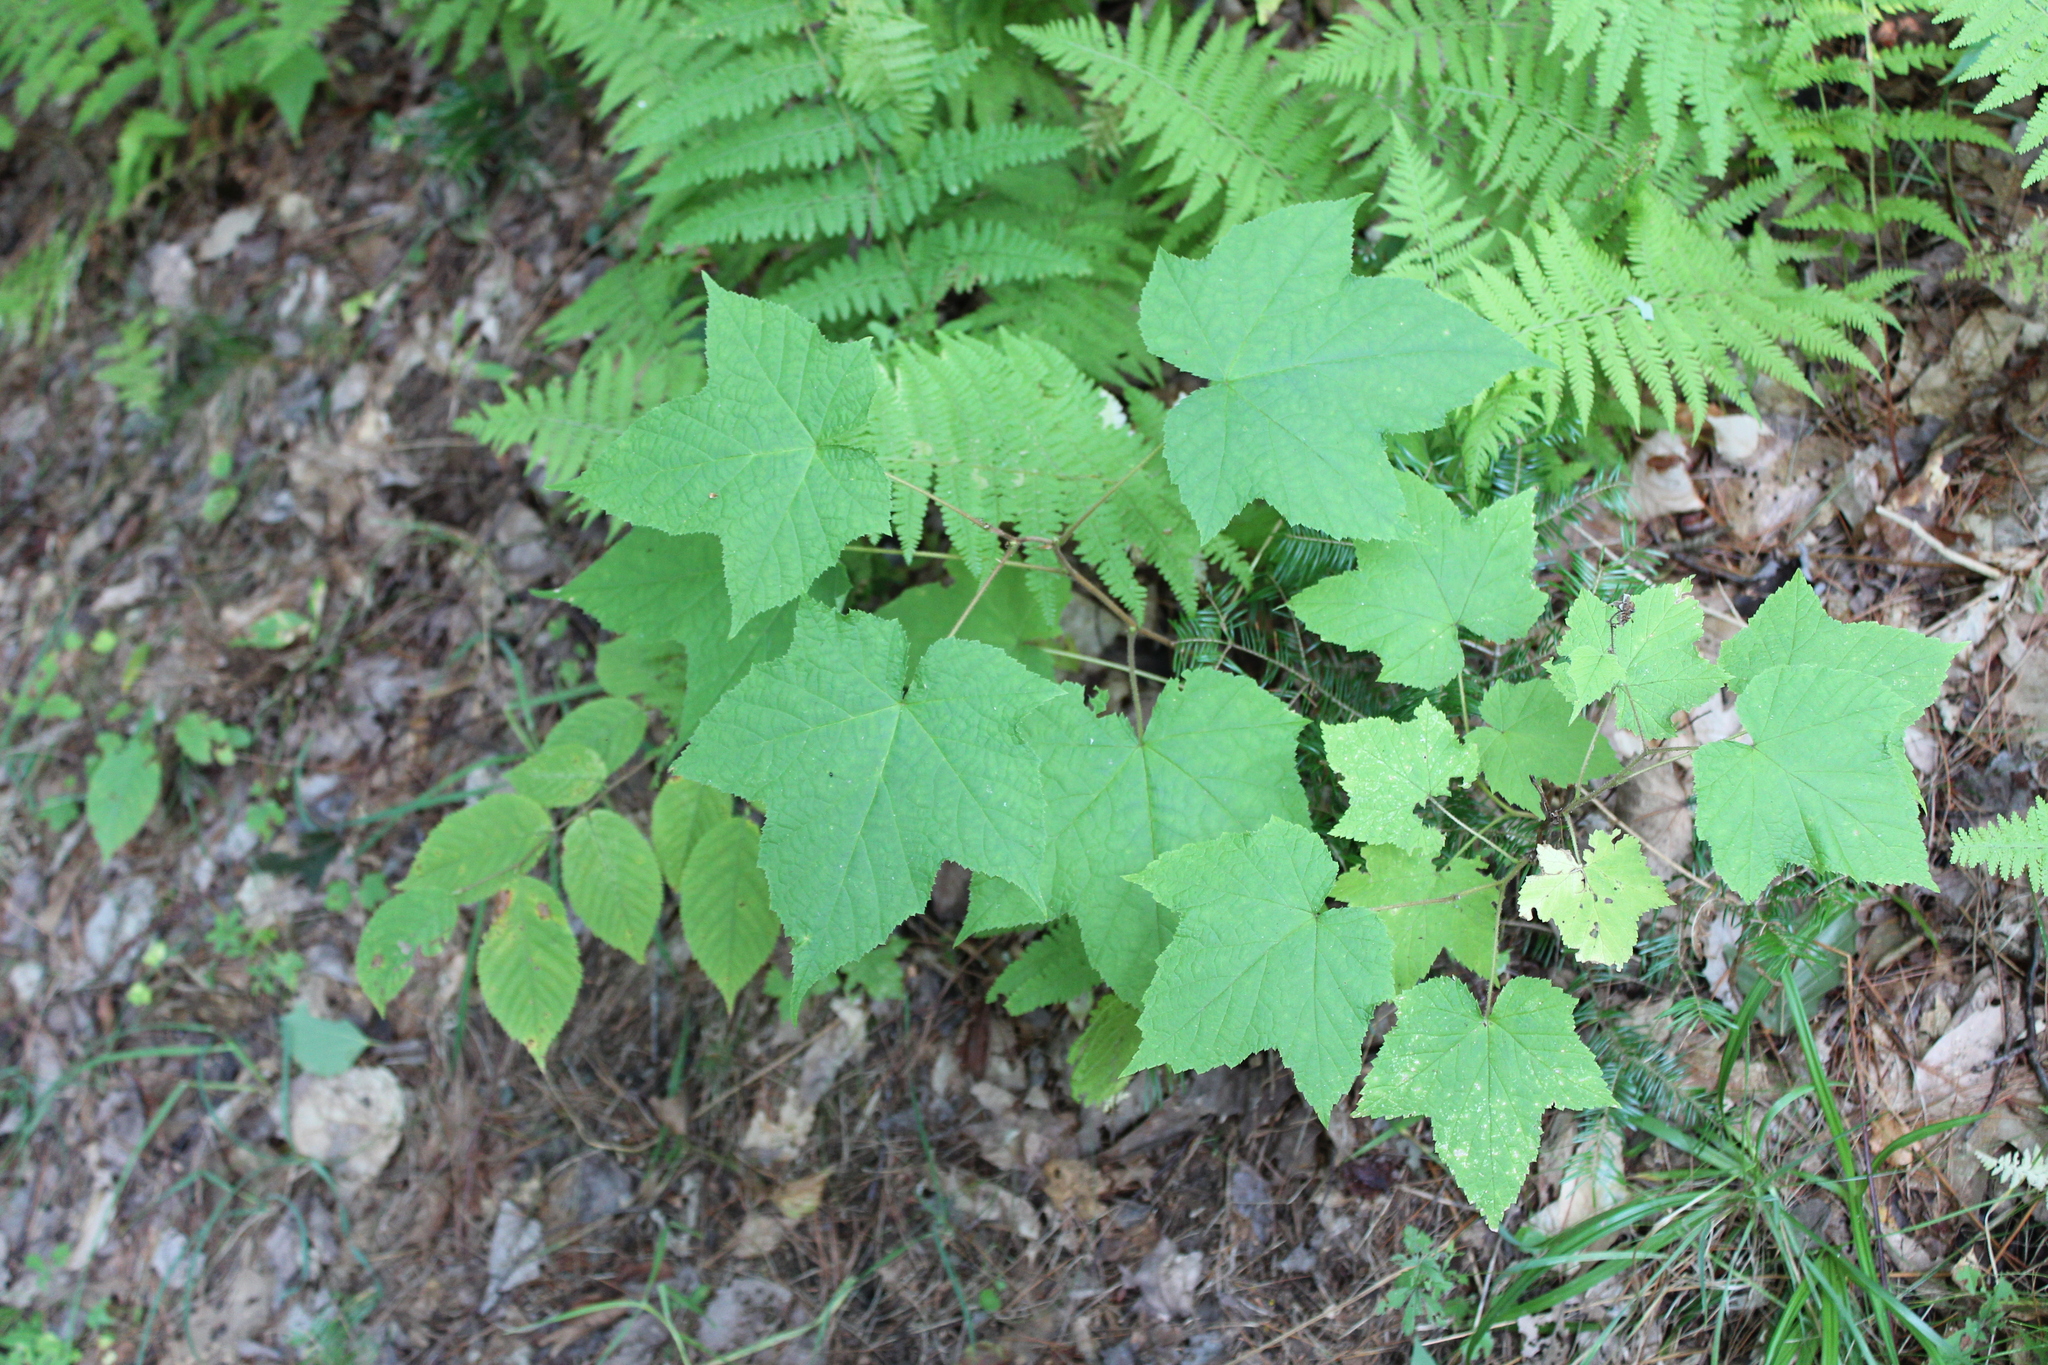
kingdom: Plantae
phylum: Tracheophyta
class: Magnoliopsida
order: Rosales
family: Rosaceae
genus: Rubus
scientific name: Rubus odoratus
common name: Purple-flowered raspberry
